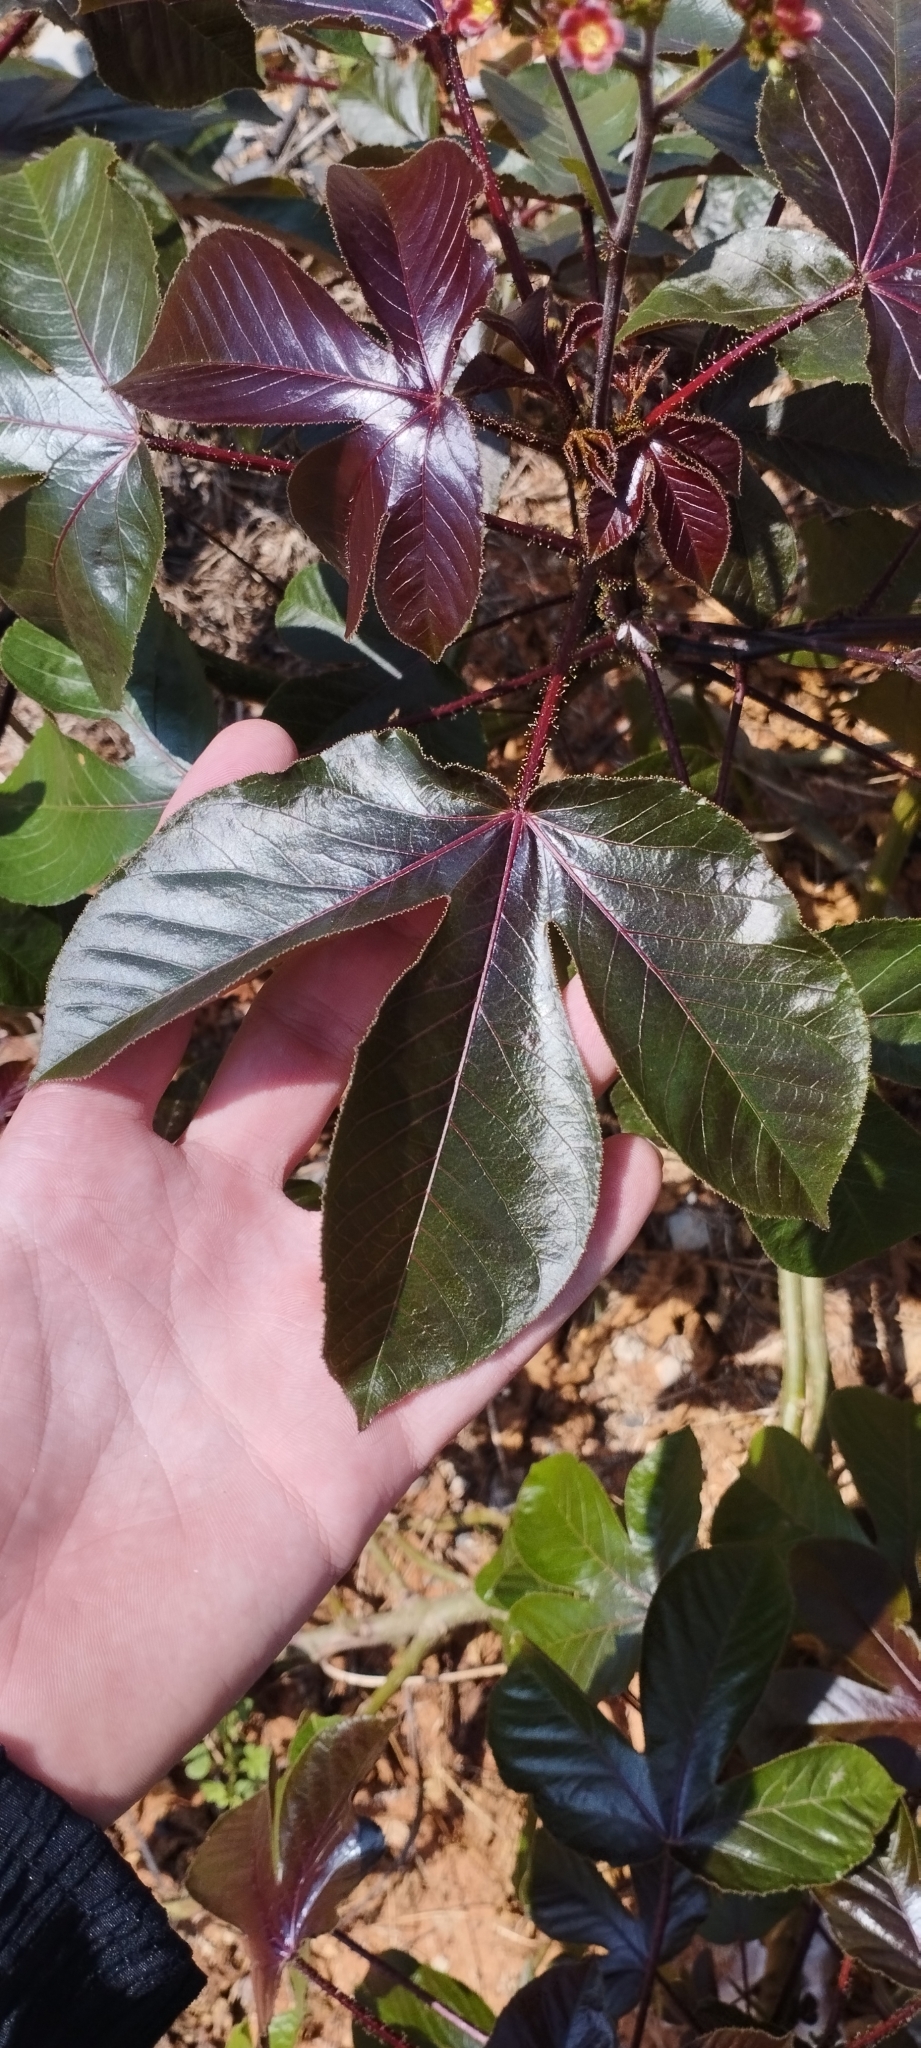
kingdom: Plantae
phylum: Tracheophyta
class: Magnoliopsida
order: Malpighiales
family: Euphorbiaceae
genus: Jatropha
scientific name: Jatropha gossypiifolia
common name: Bellyache bush
